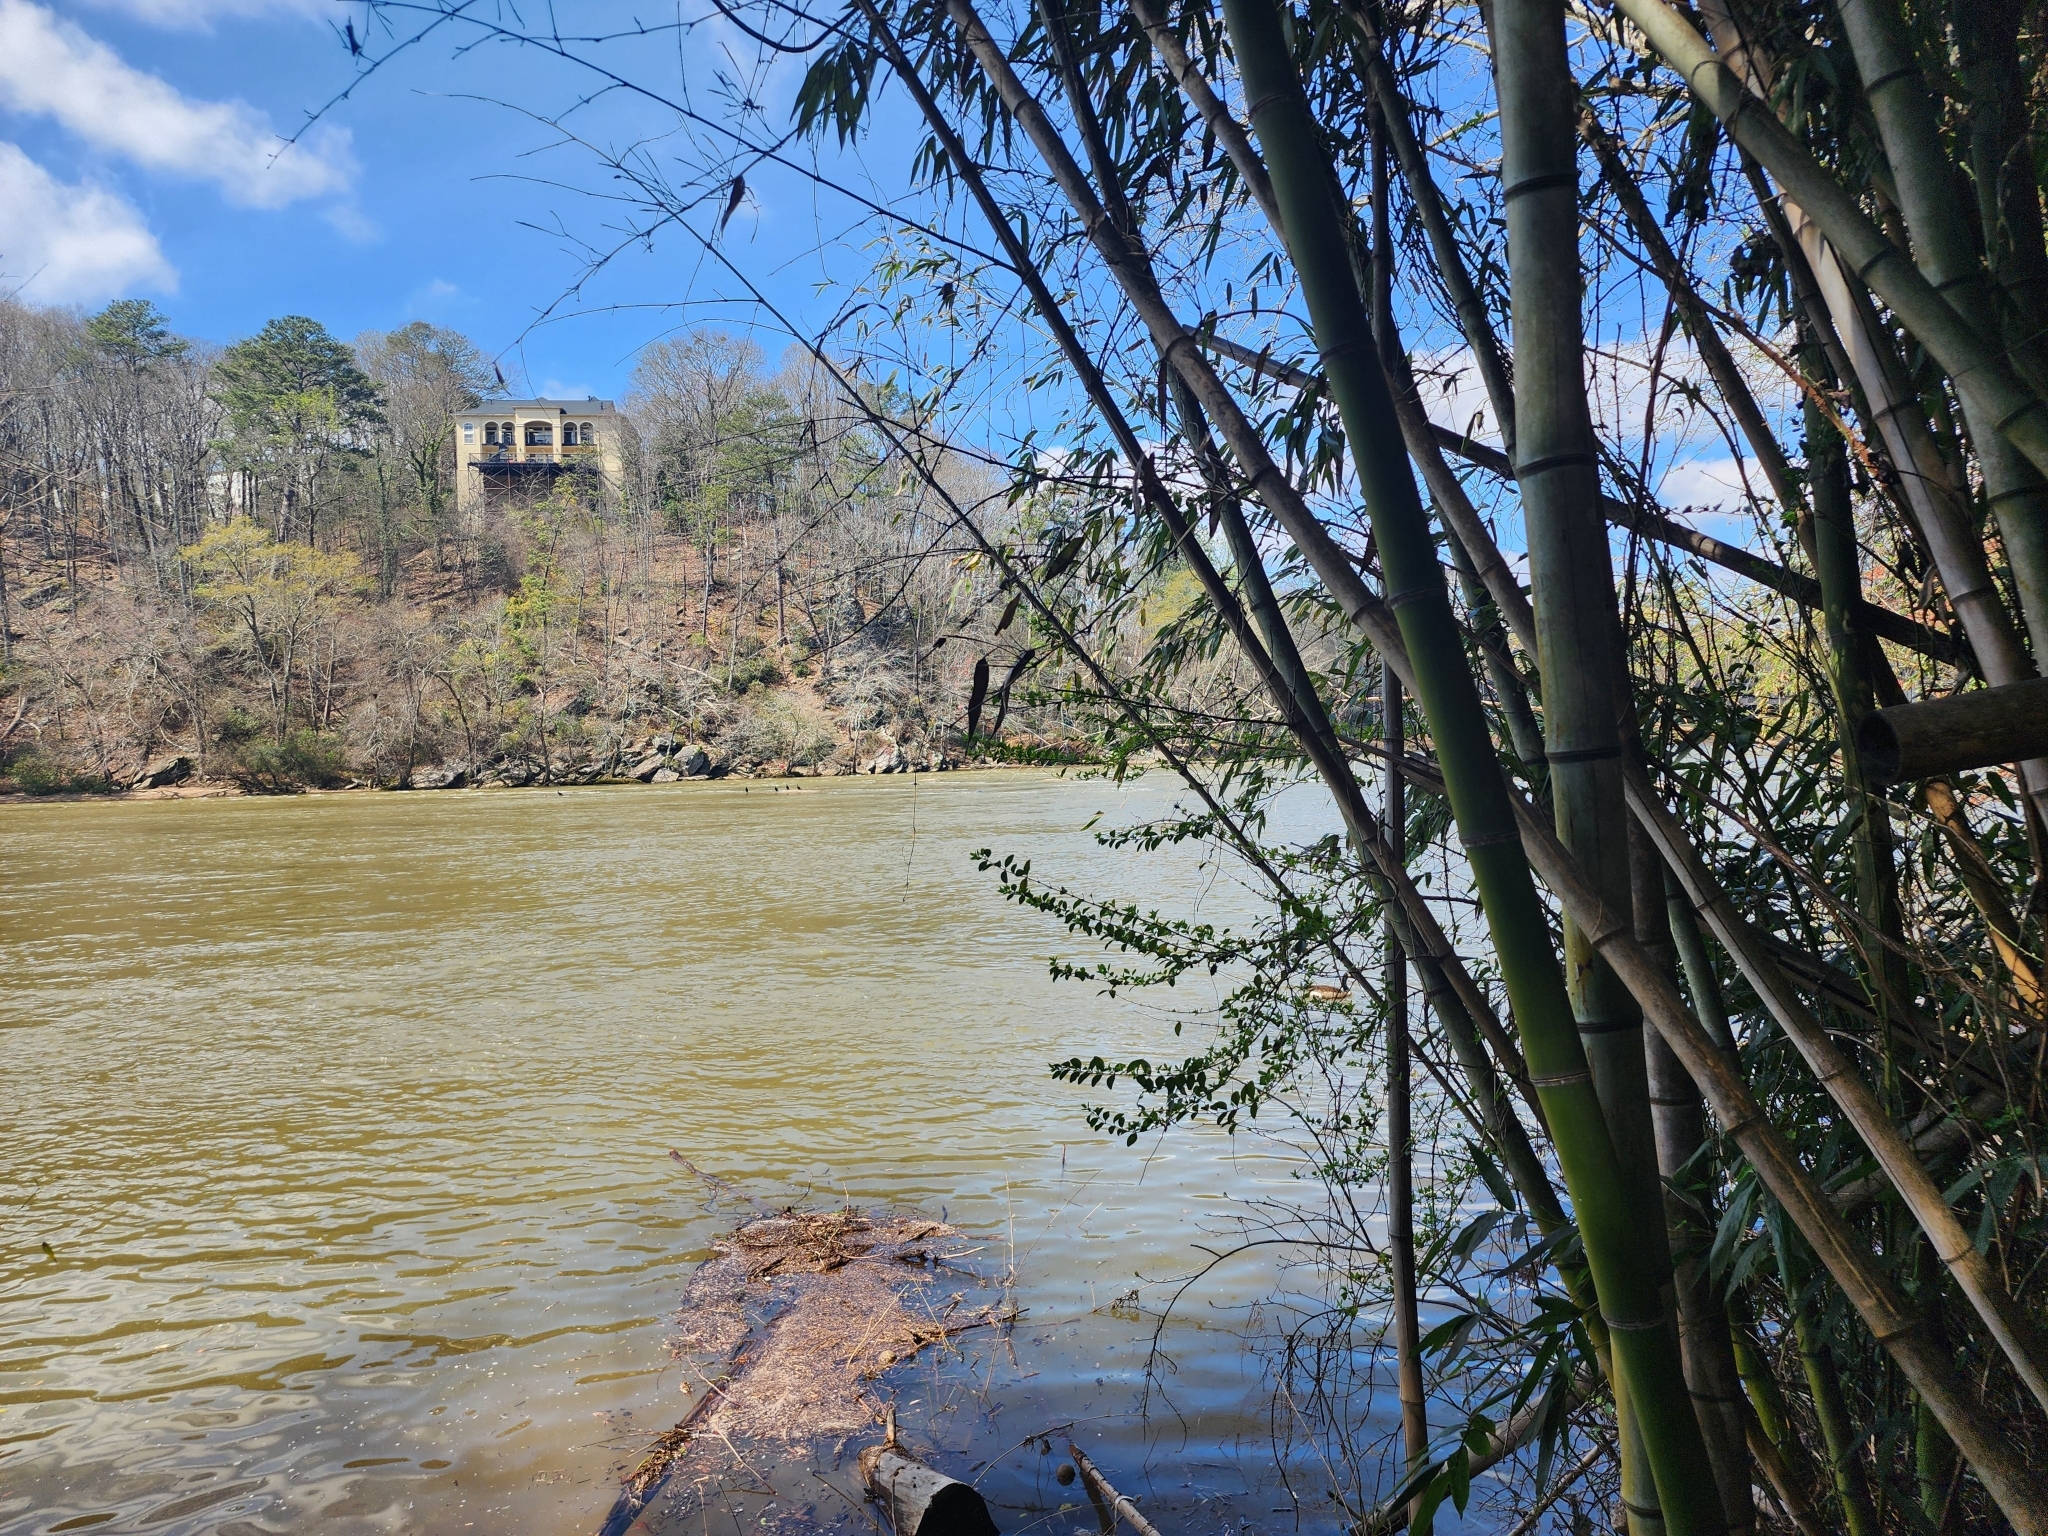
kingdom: Plantae
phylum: Tracheophyta
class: Liliopsida
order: Poales
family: Poaceae
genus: Phyllostachys
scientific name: Phyllostachys reticulata
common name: Bamboo
